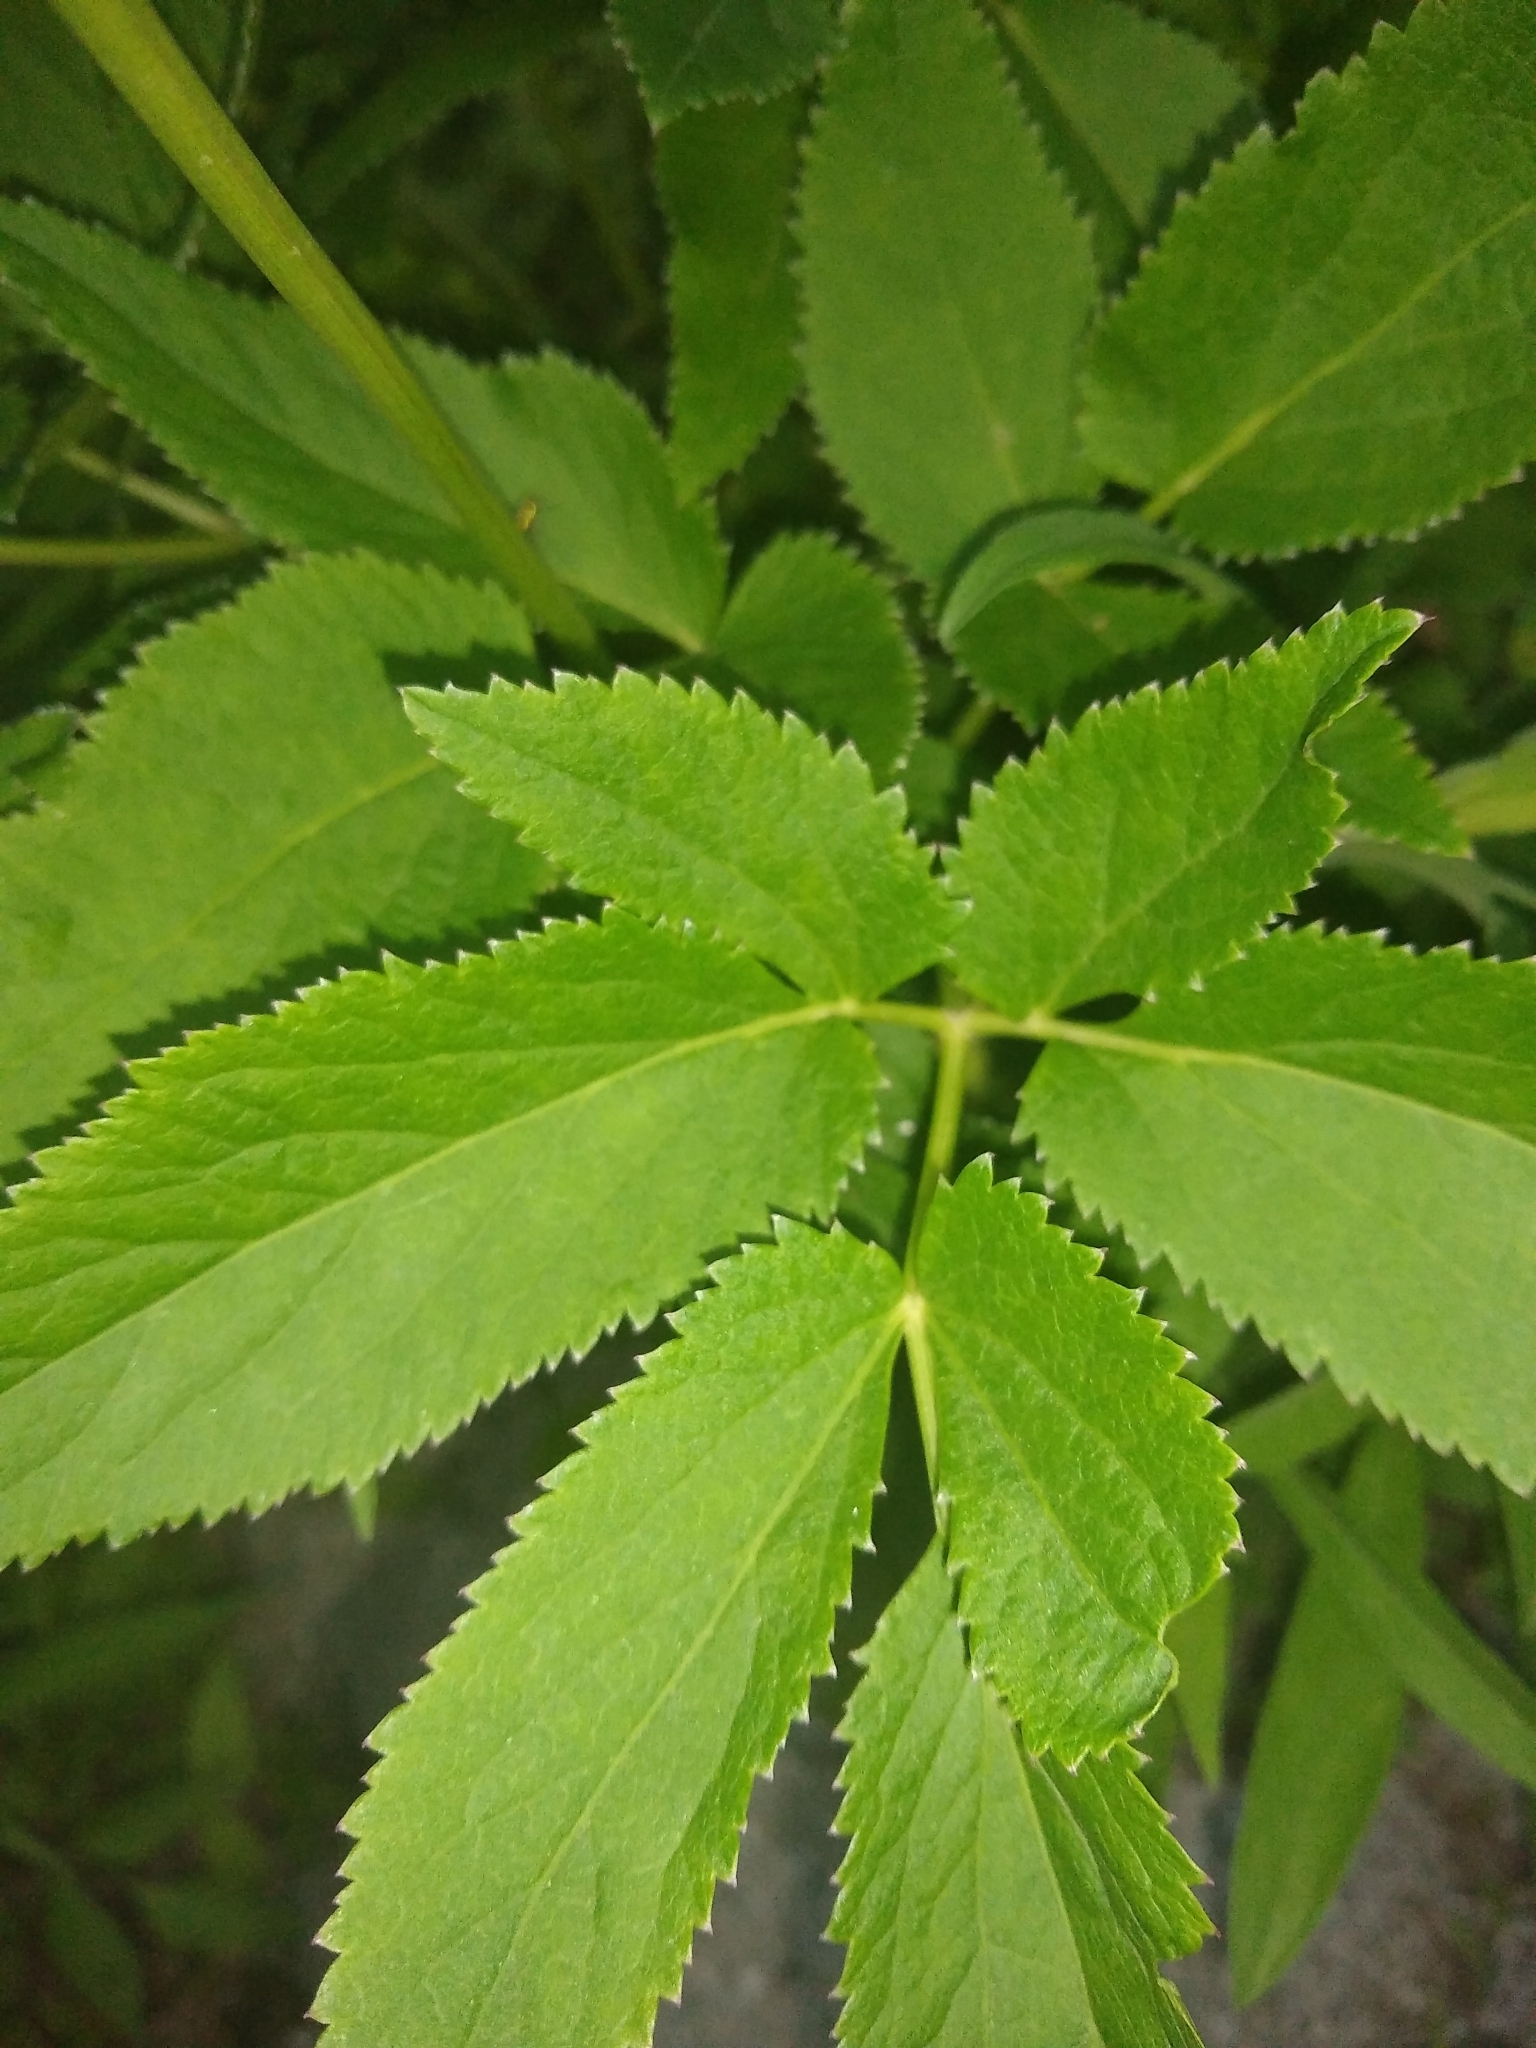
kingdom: Plantae
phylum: Tracheophyta
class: Magnoliopsida
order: Apiales
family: Apiaceae
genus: Zizia
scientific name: Zizia aurea
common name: Golden alexanders
